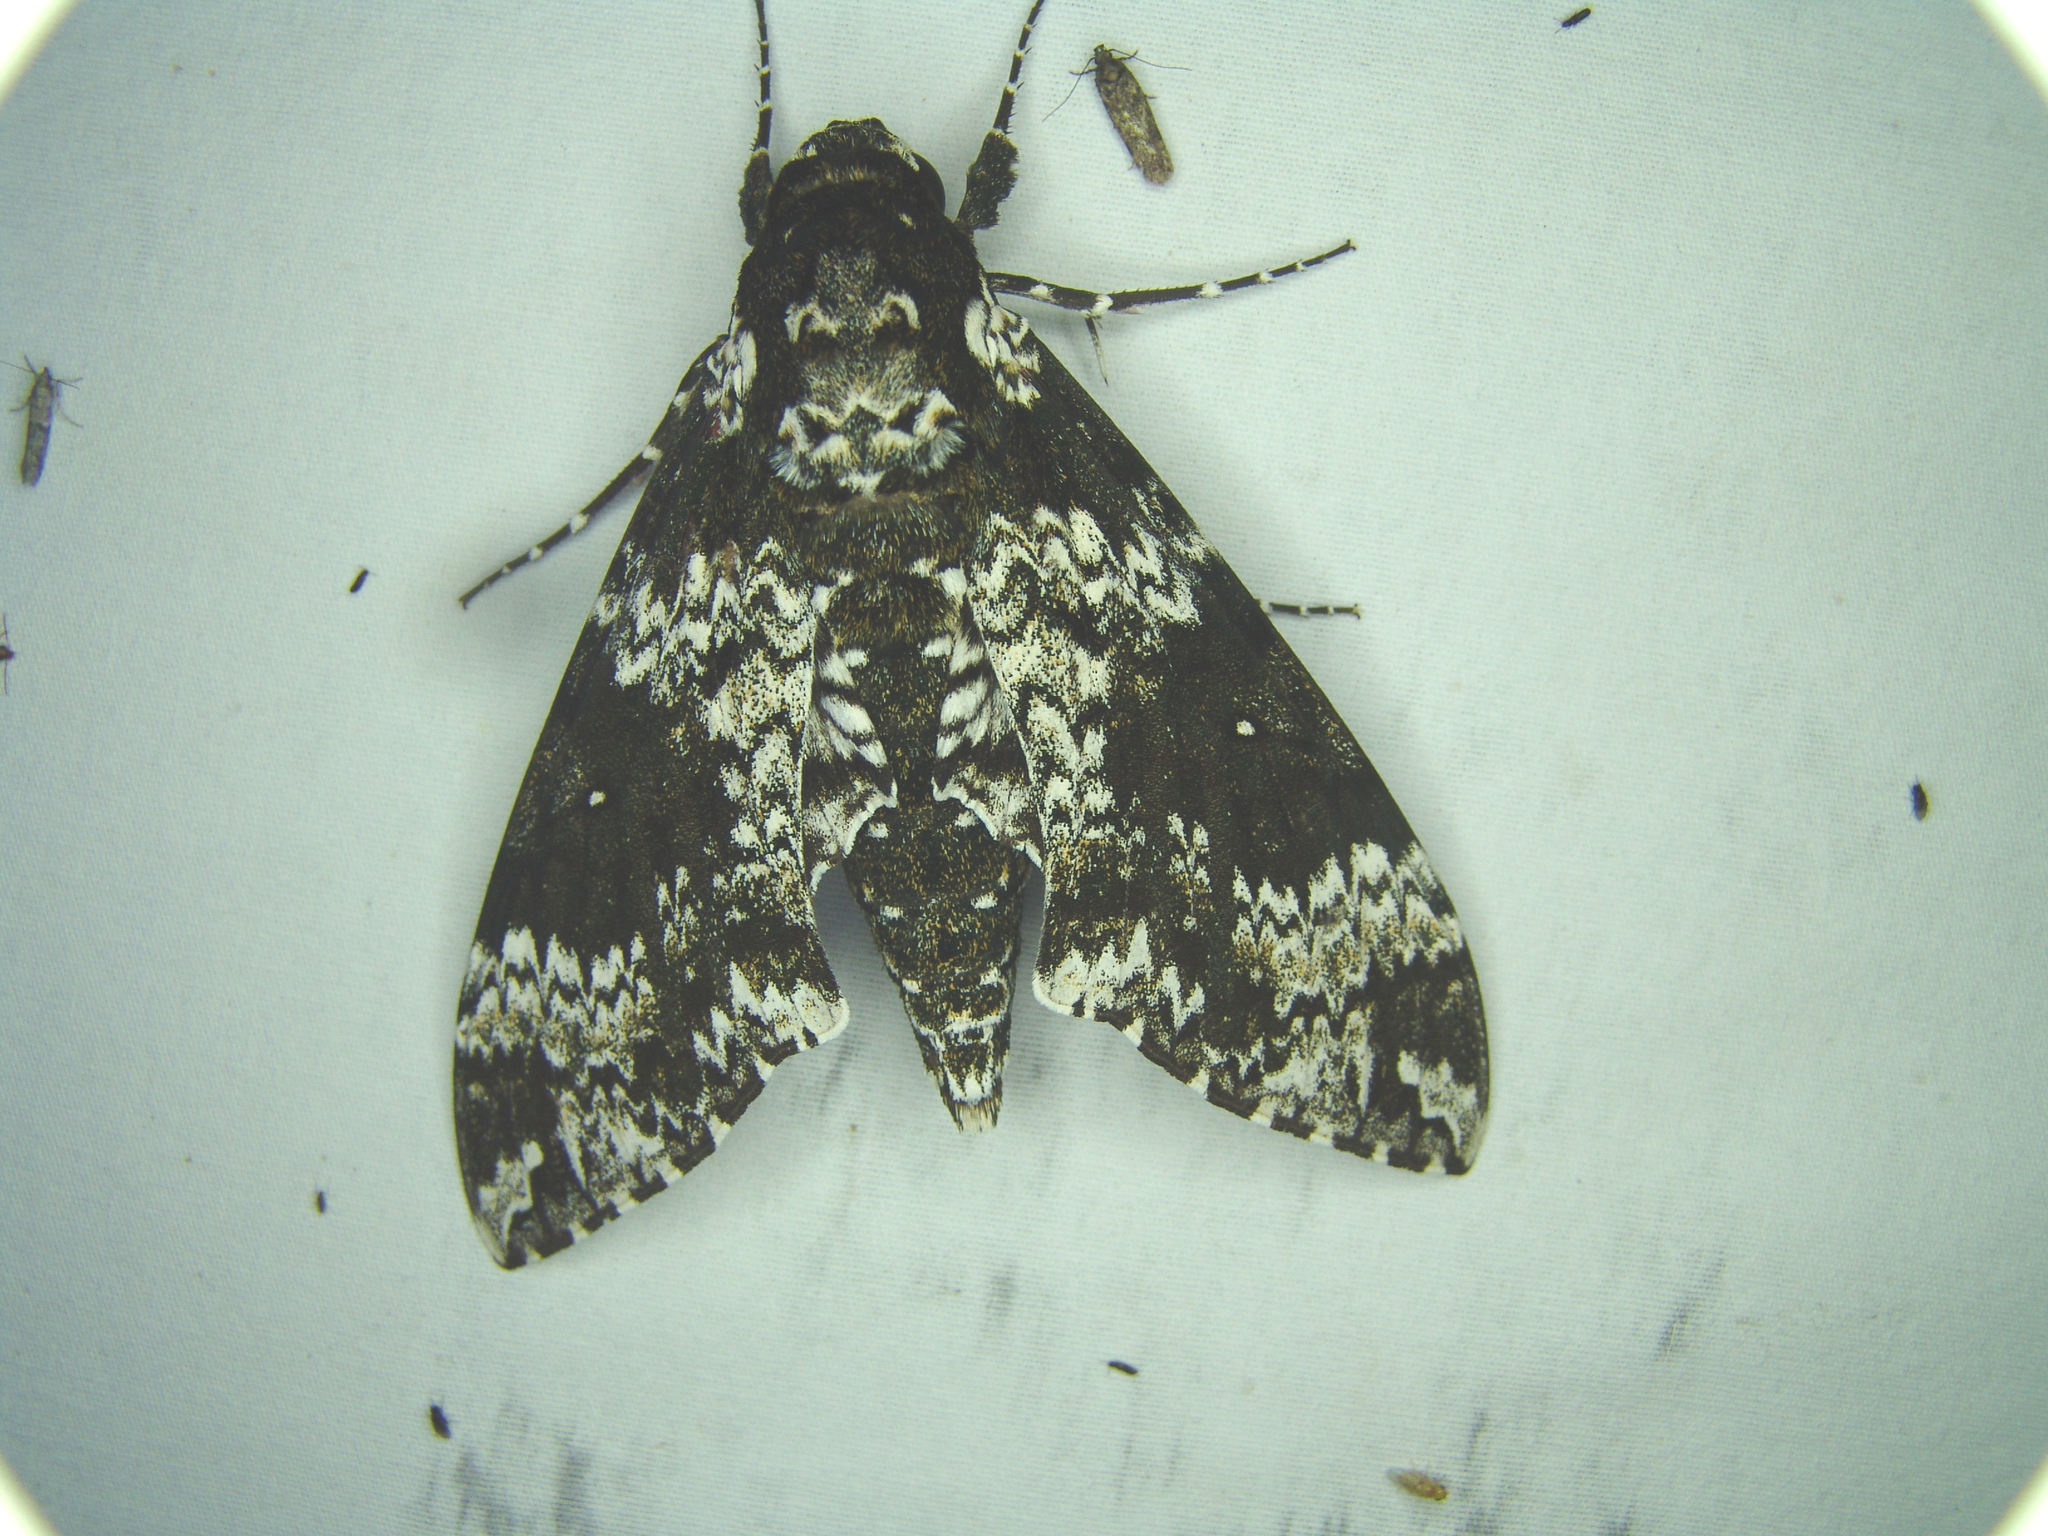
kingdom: Animalia
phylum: Arthropoda
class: Insecta
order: Lepidoptera
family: Sphingidae
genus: Manduca
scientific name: Manduca rustica
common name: Rustic sphinx
